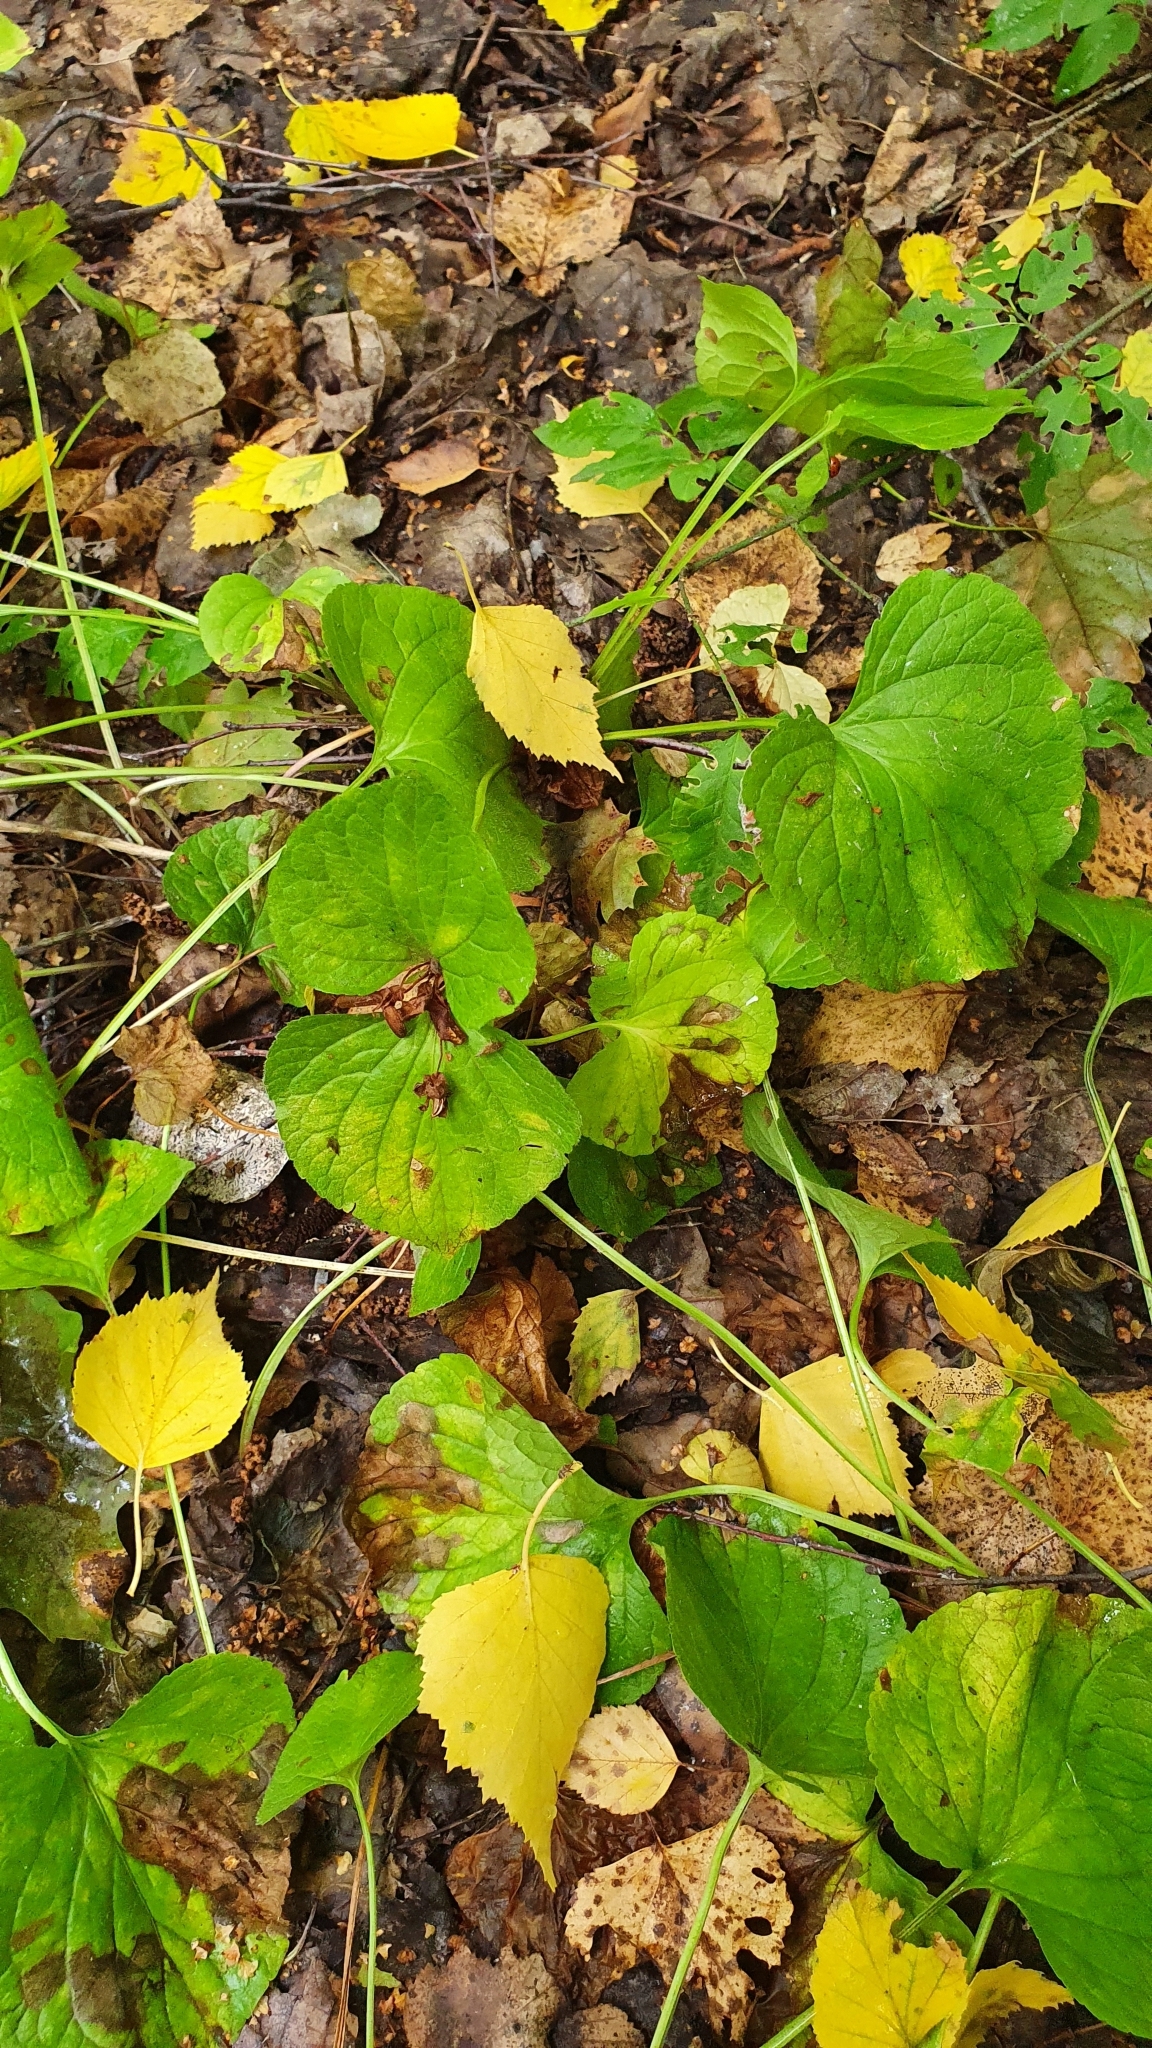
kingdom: Plantae
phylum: Tracheophyta
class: Magnoliopsida
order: Malpighiales
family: Violaceae
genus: Viola
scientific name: Viola mirabilis
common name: Wonder violet
